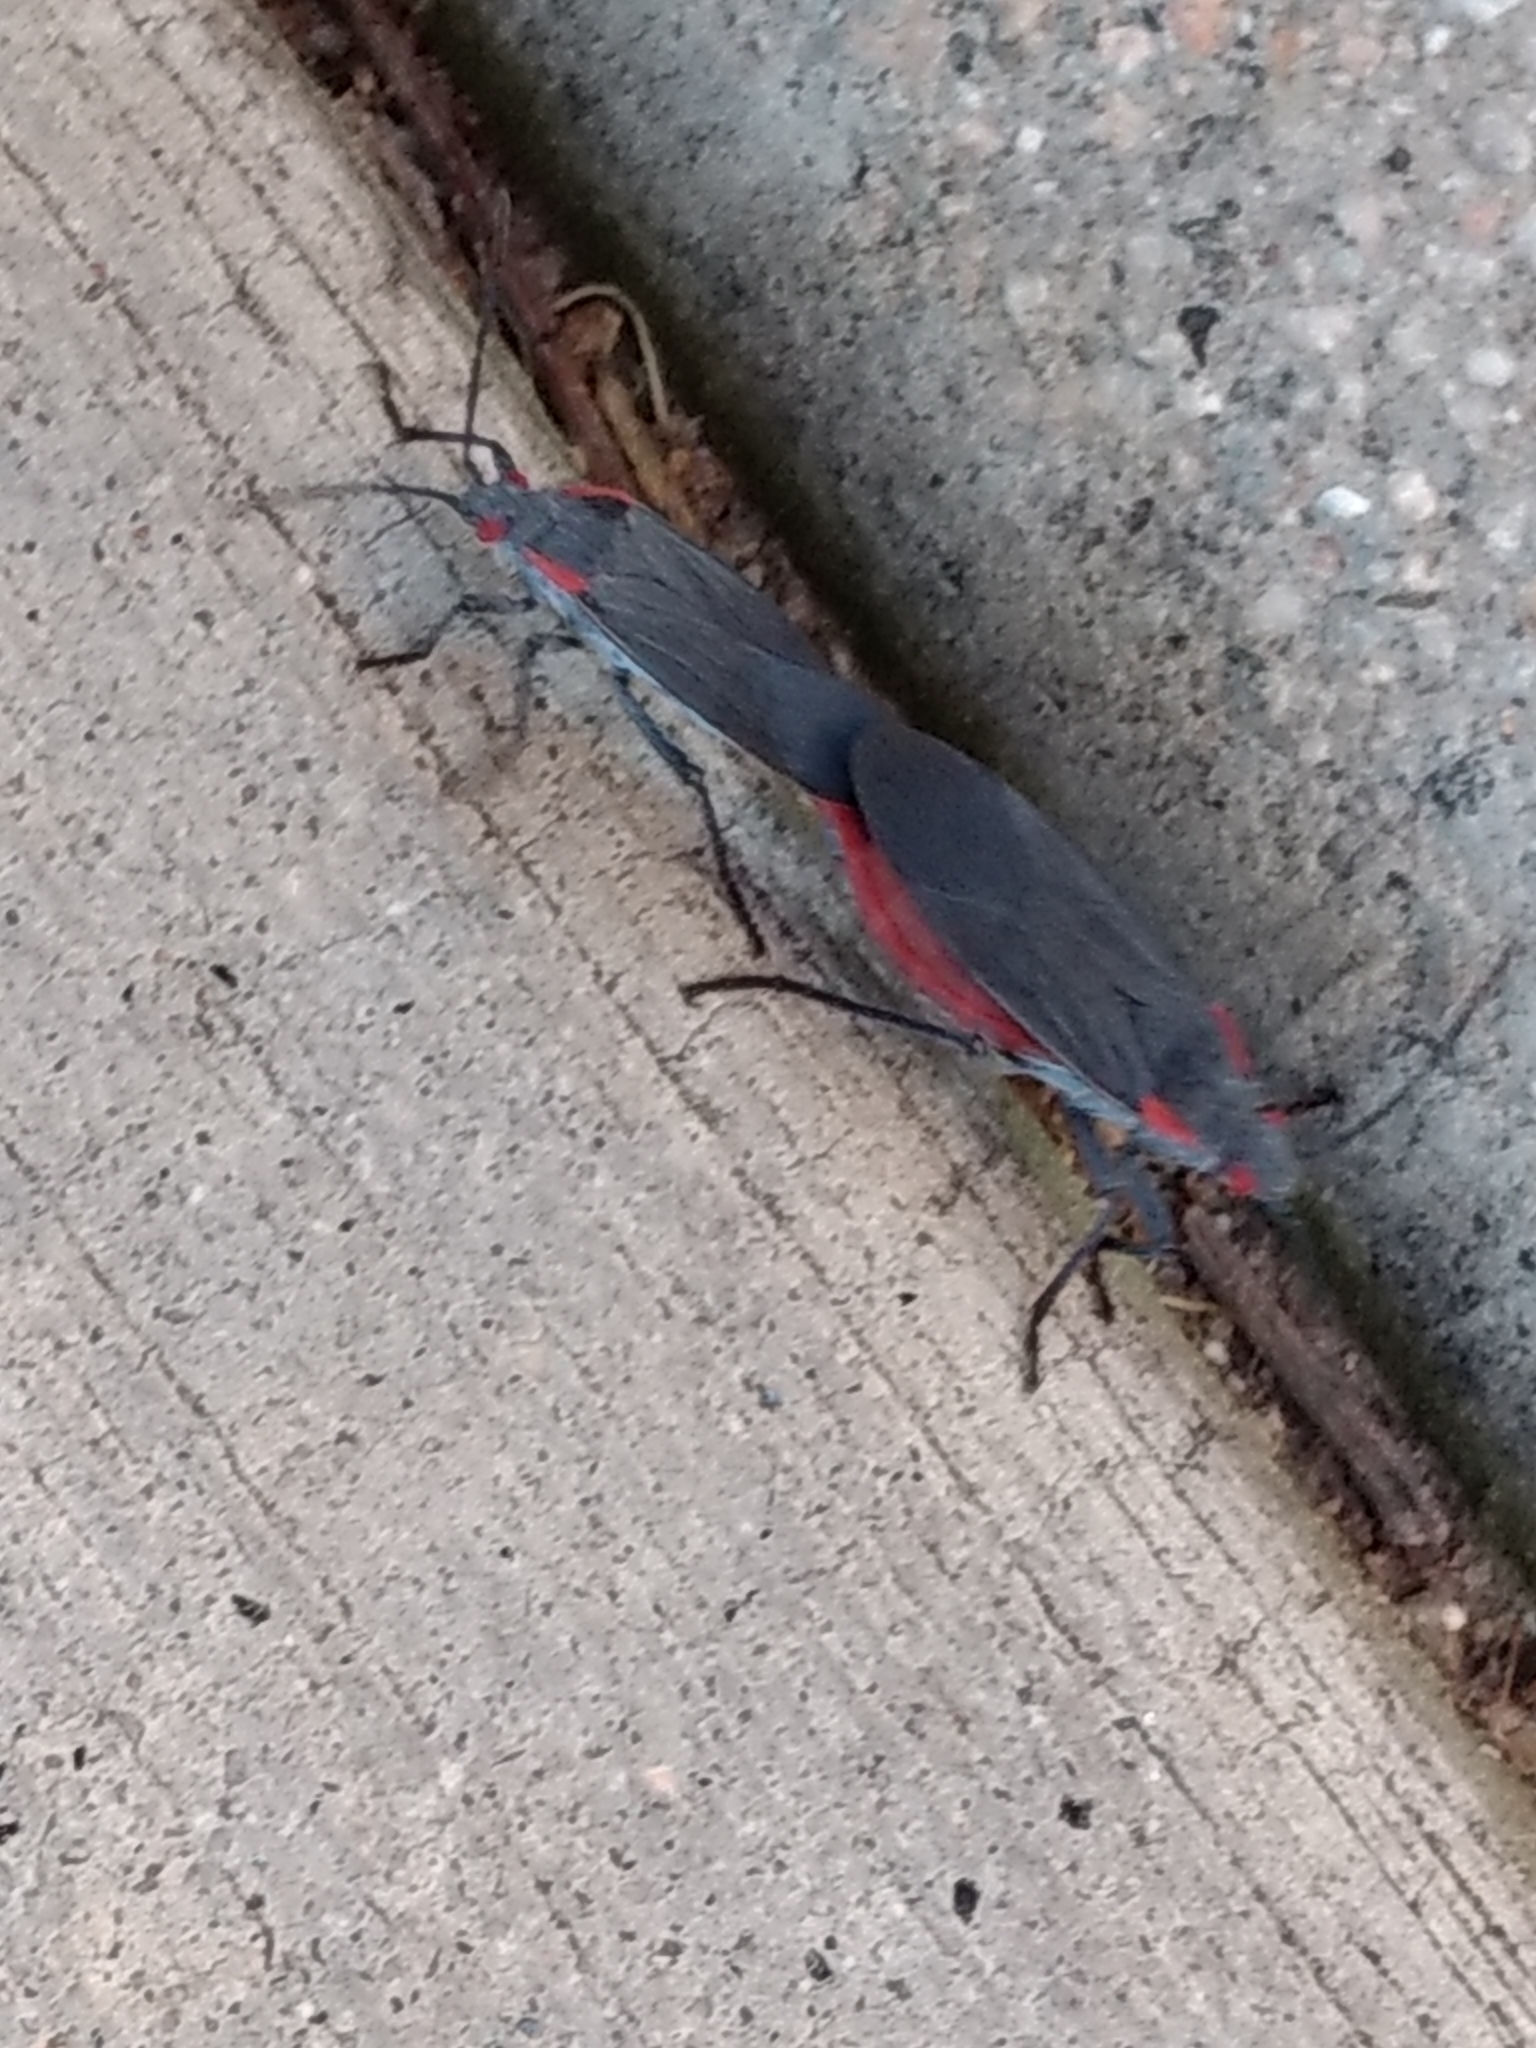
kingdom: Animalia
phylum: Arthropoda
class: Insecta
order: Hemiptera
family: Rhopalidae
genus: Jadera
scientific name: Jadera haematoloma
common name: Red-shouldered bug
